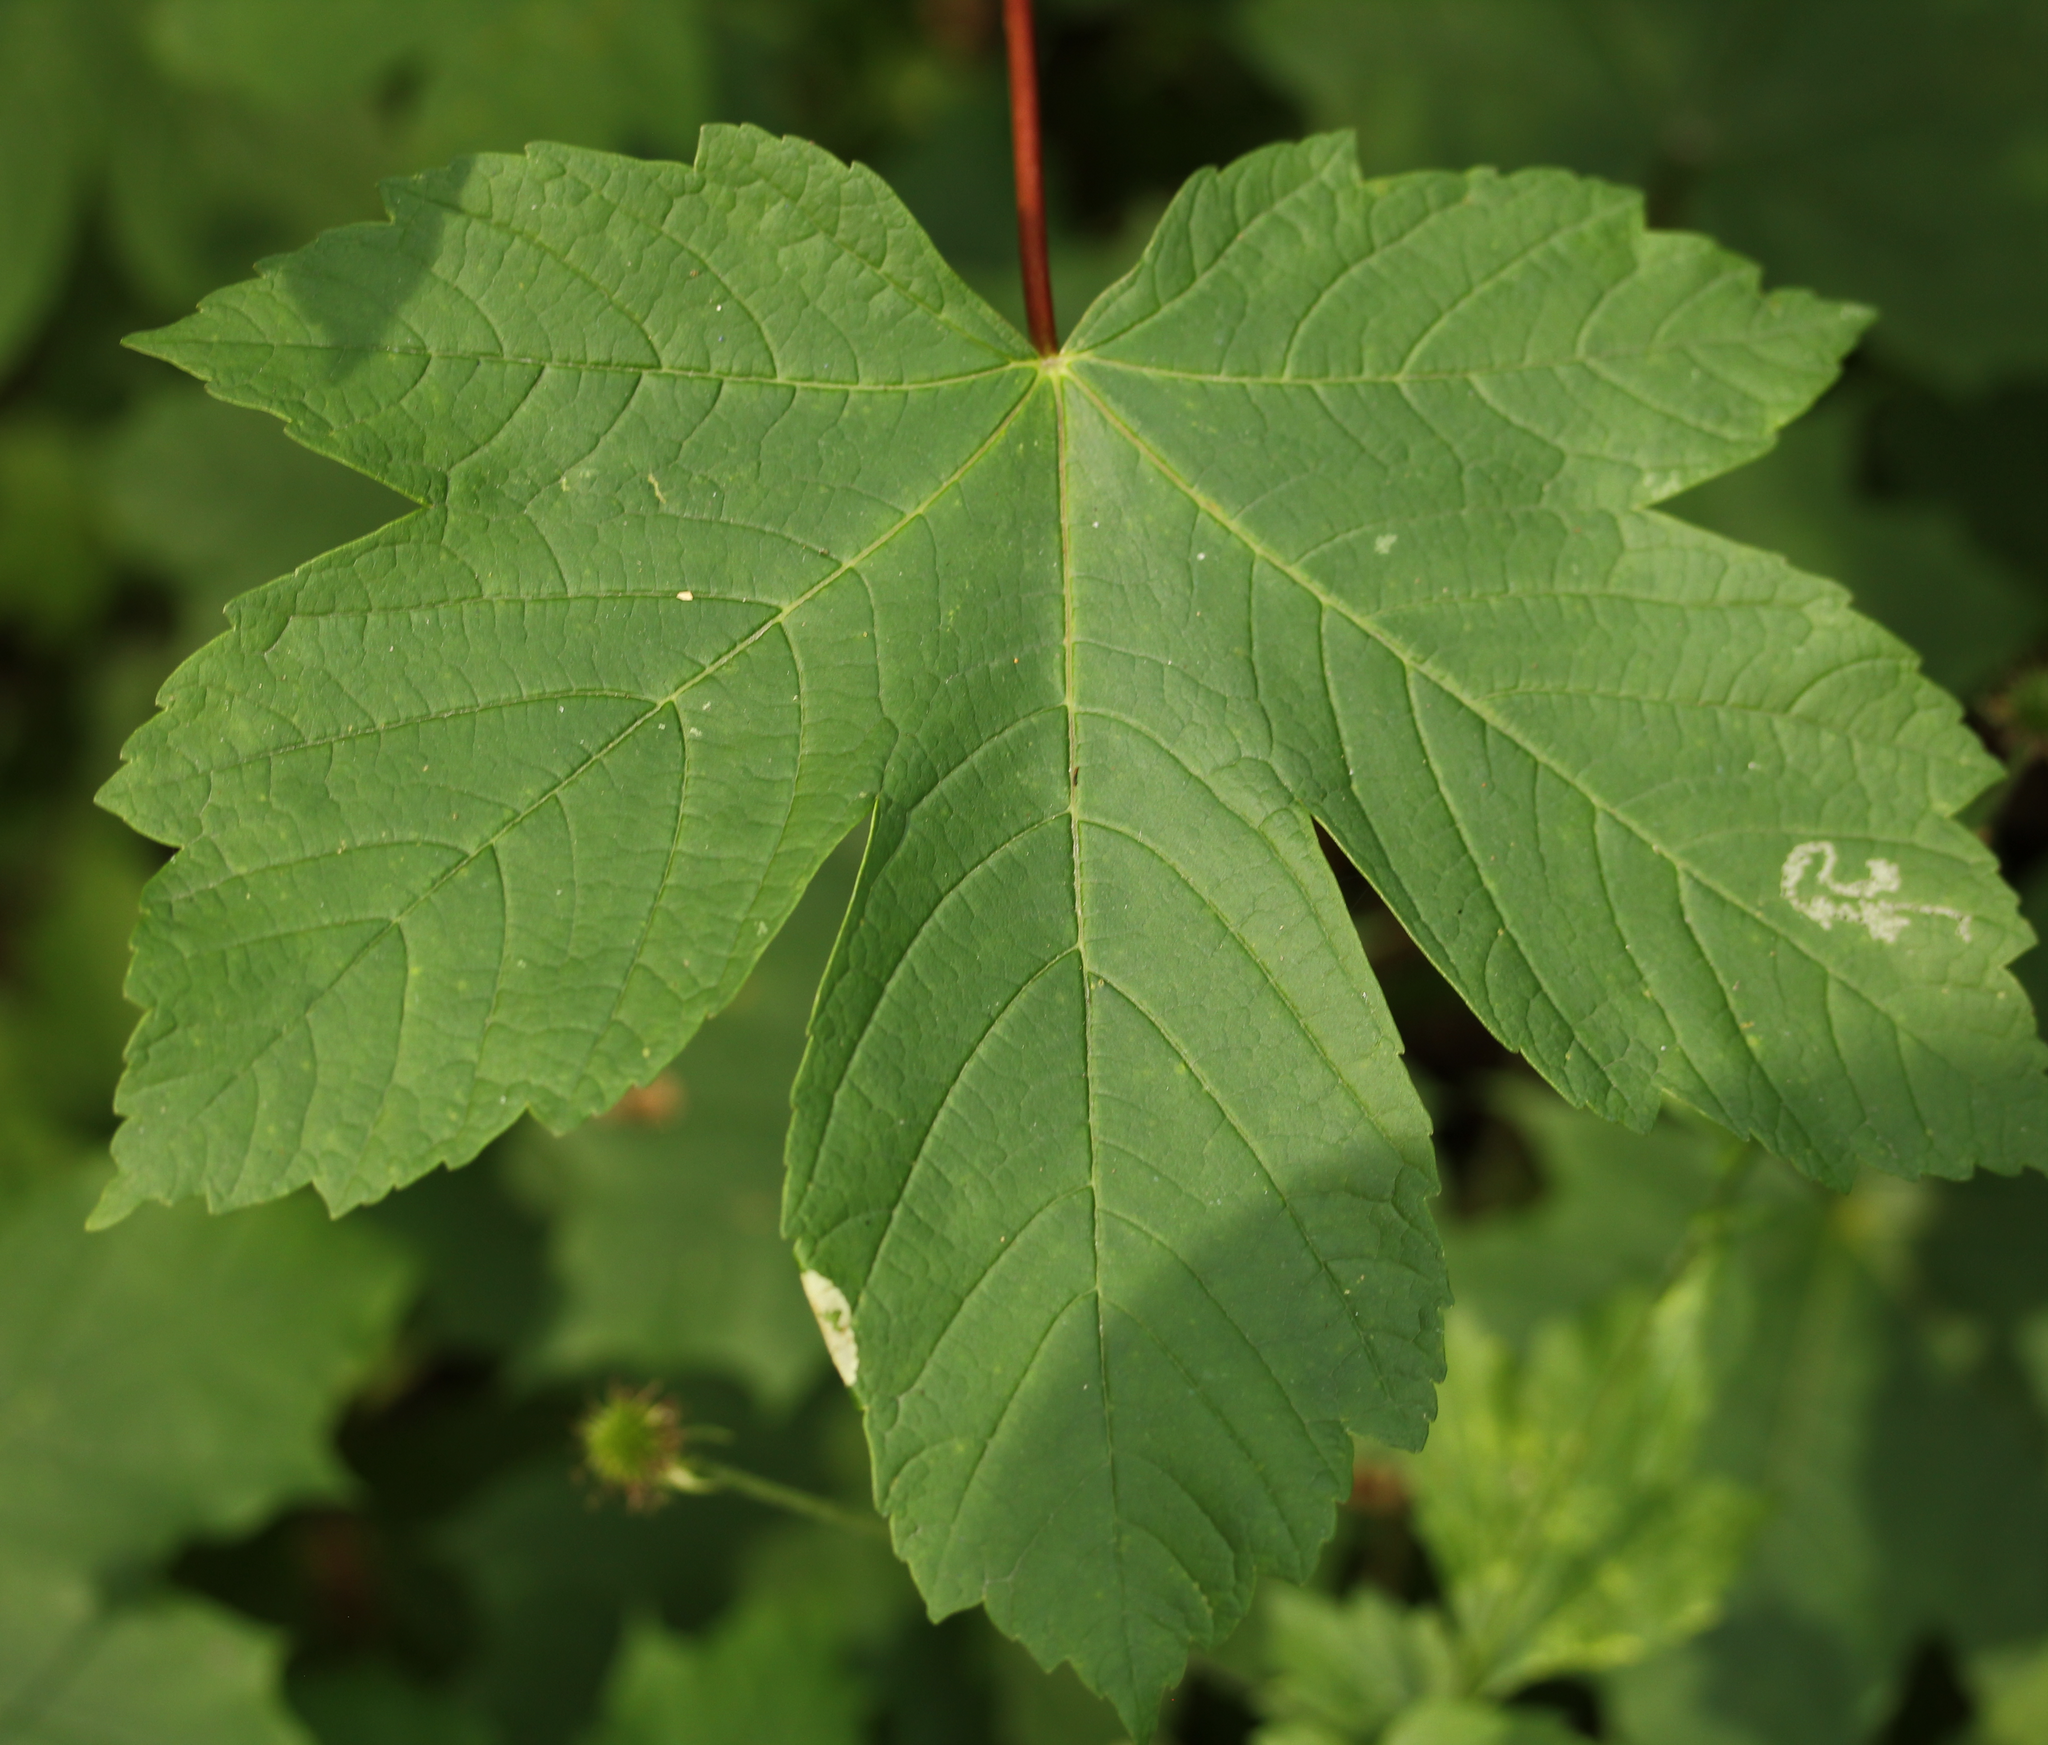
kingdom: Plantae
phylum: Tracheophyta
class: Magnoliopsida
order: Sapindales
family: Sapindaceae
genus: Acer
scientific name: Acer pseudoplatanus
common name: Sycamore
